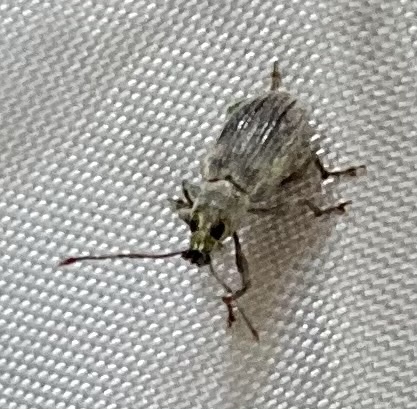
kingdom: Animalia
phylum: Arthropoda
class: Insecta
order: Coleoptera
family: Curculionidae
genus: Cyrtepistomus
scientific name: Cyrtepistomus castaneus
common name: Weevil
